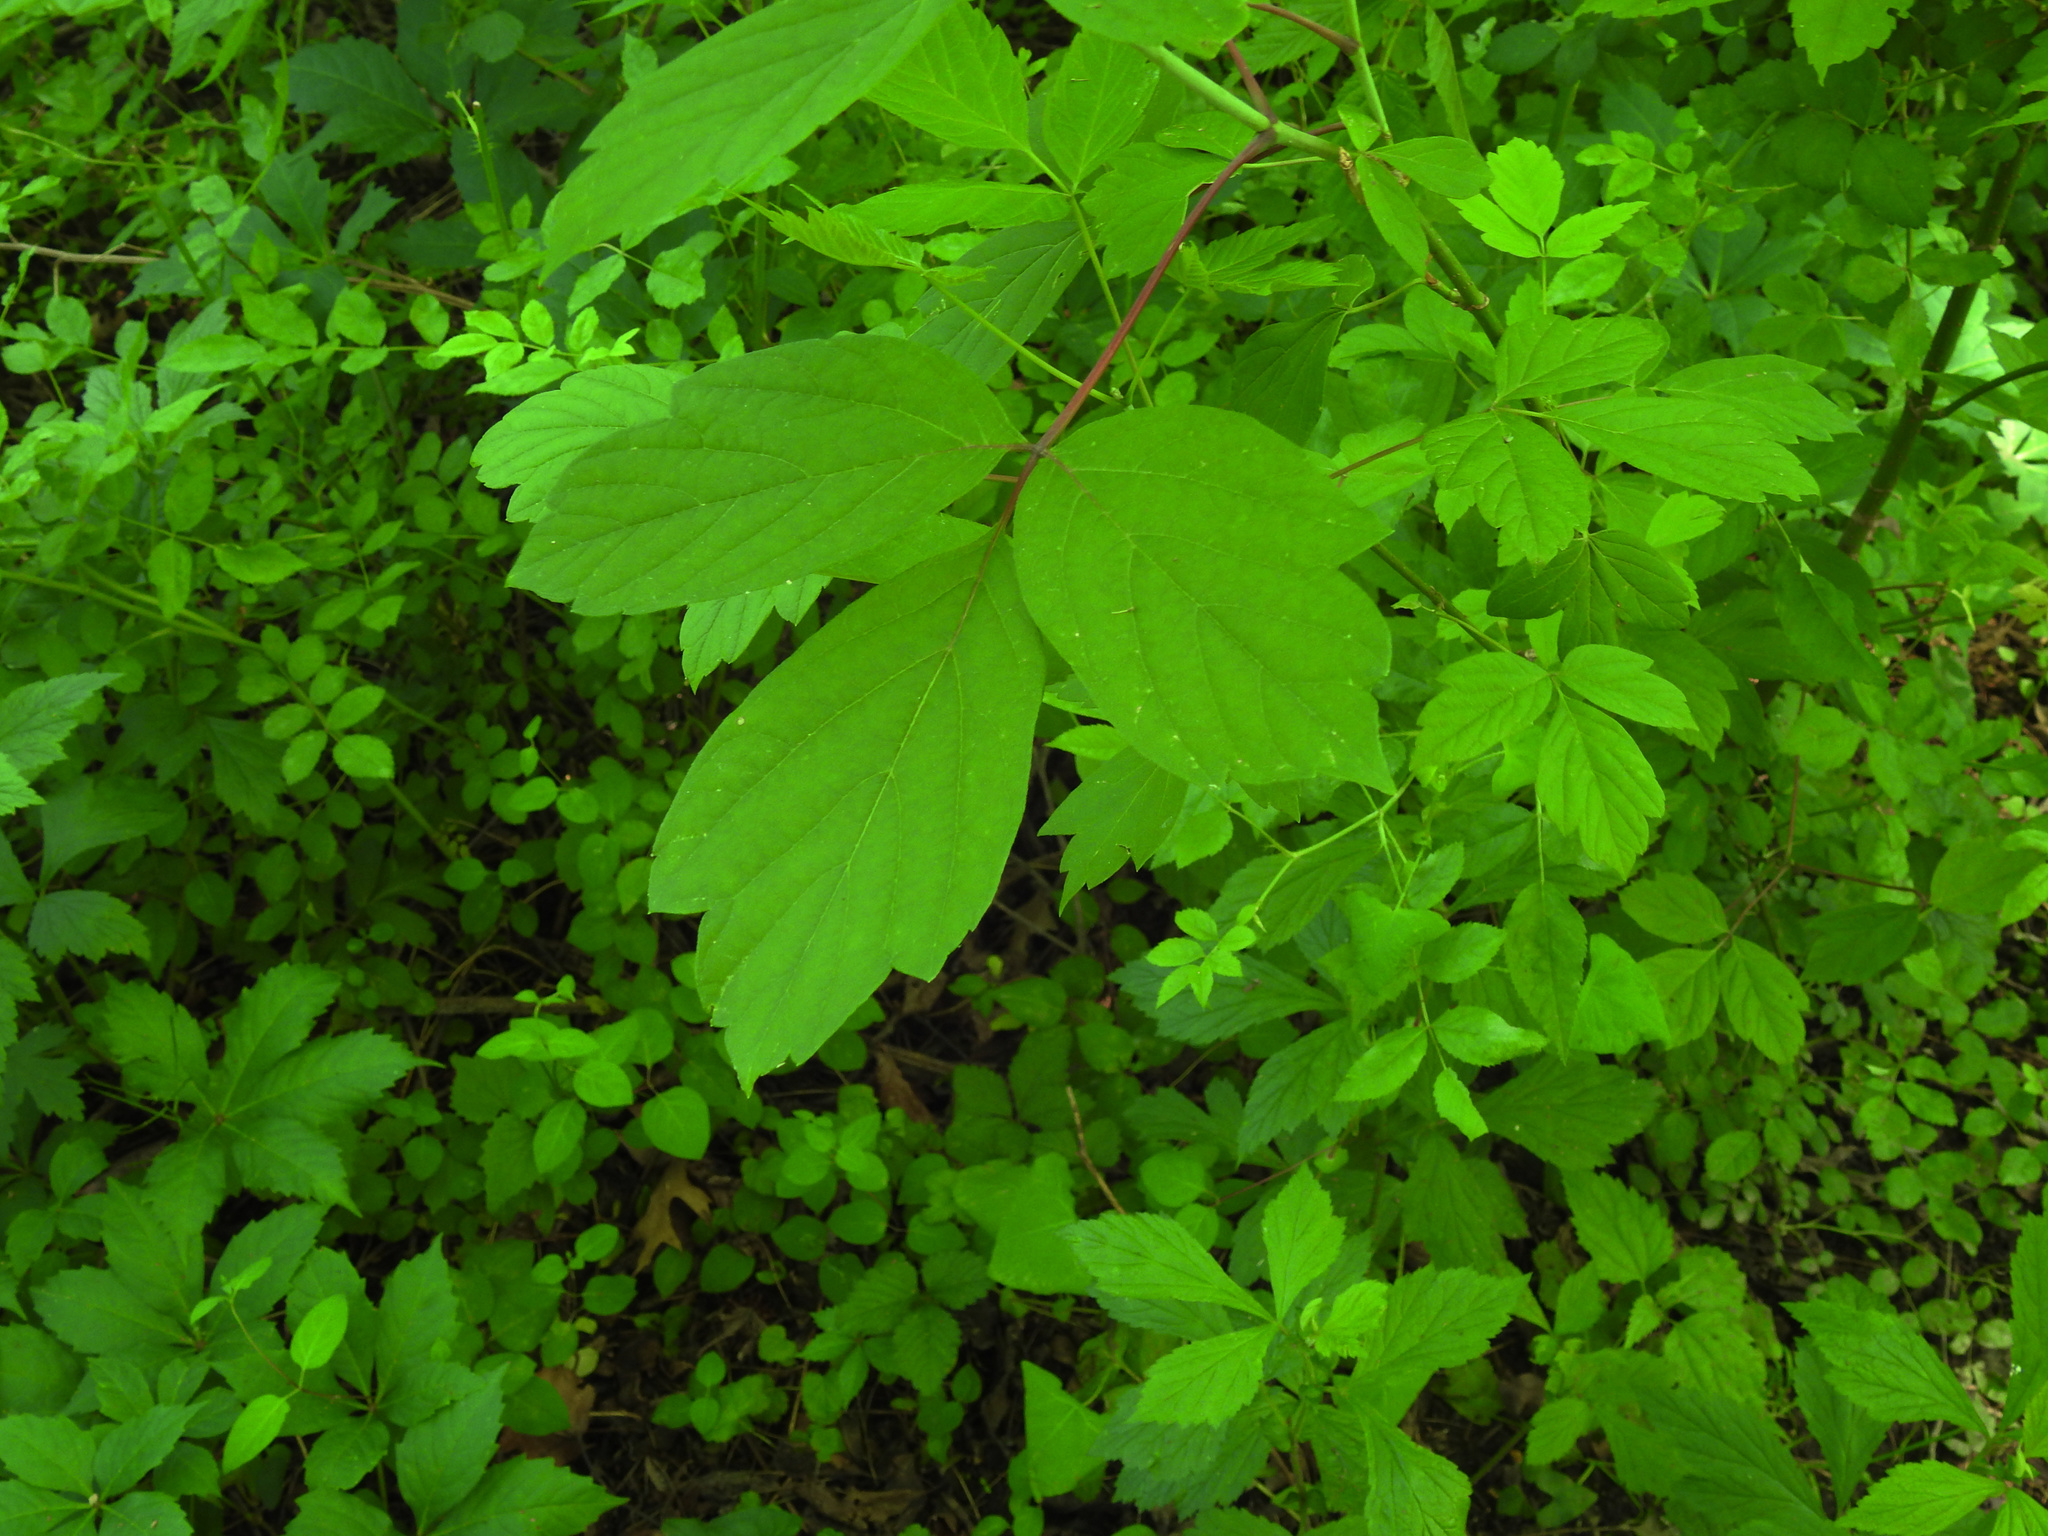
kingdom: Plantae
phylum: Tracheophyta
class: Magnoliopsida
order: Sapindales
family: Sapindaceae
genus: Acer
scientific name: Acer negundo
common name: Ashleaf maple
